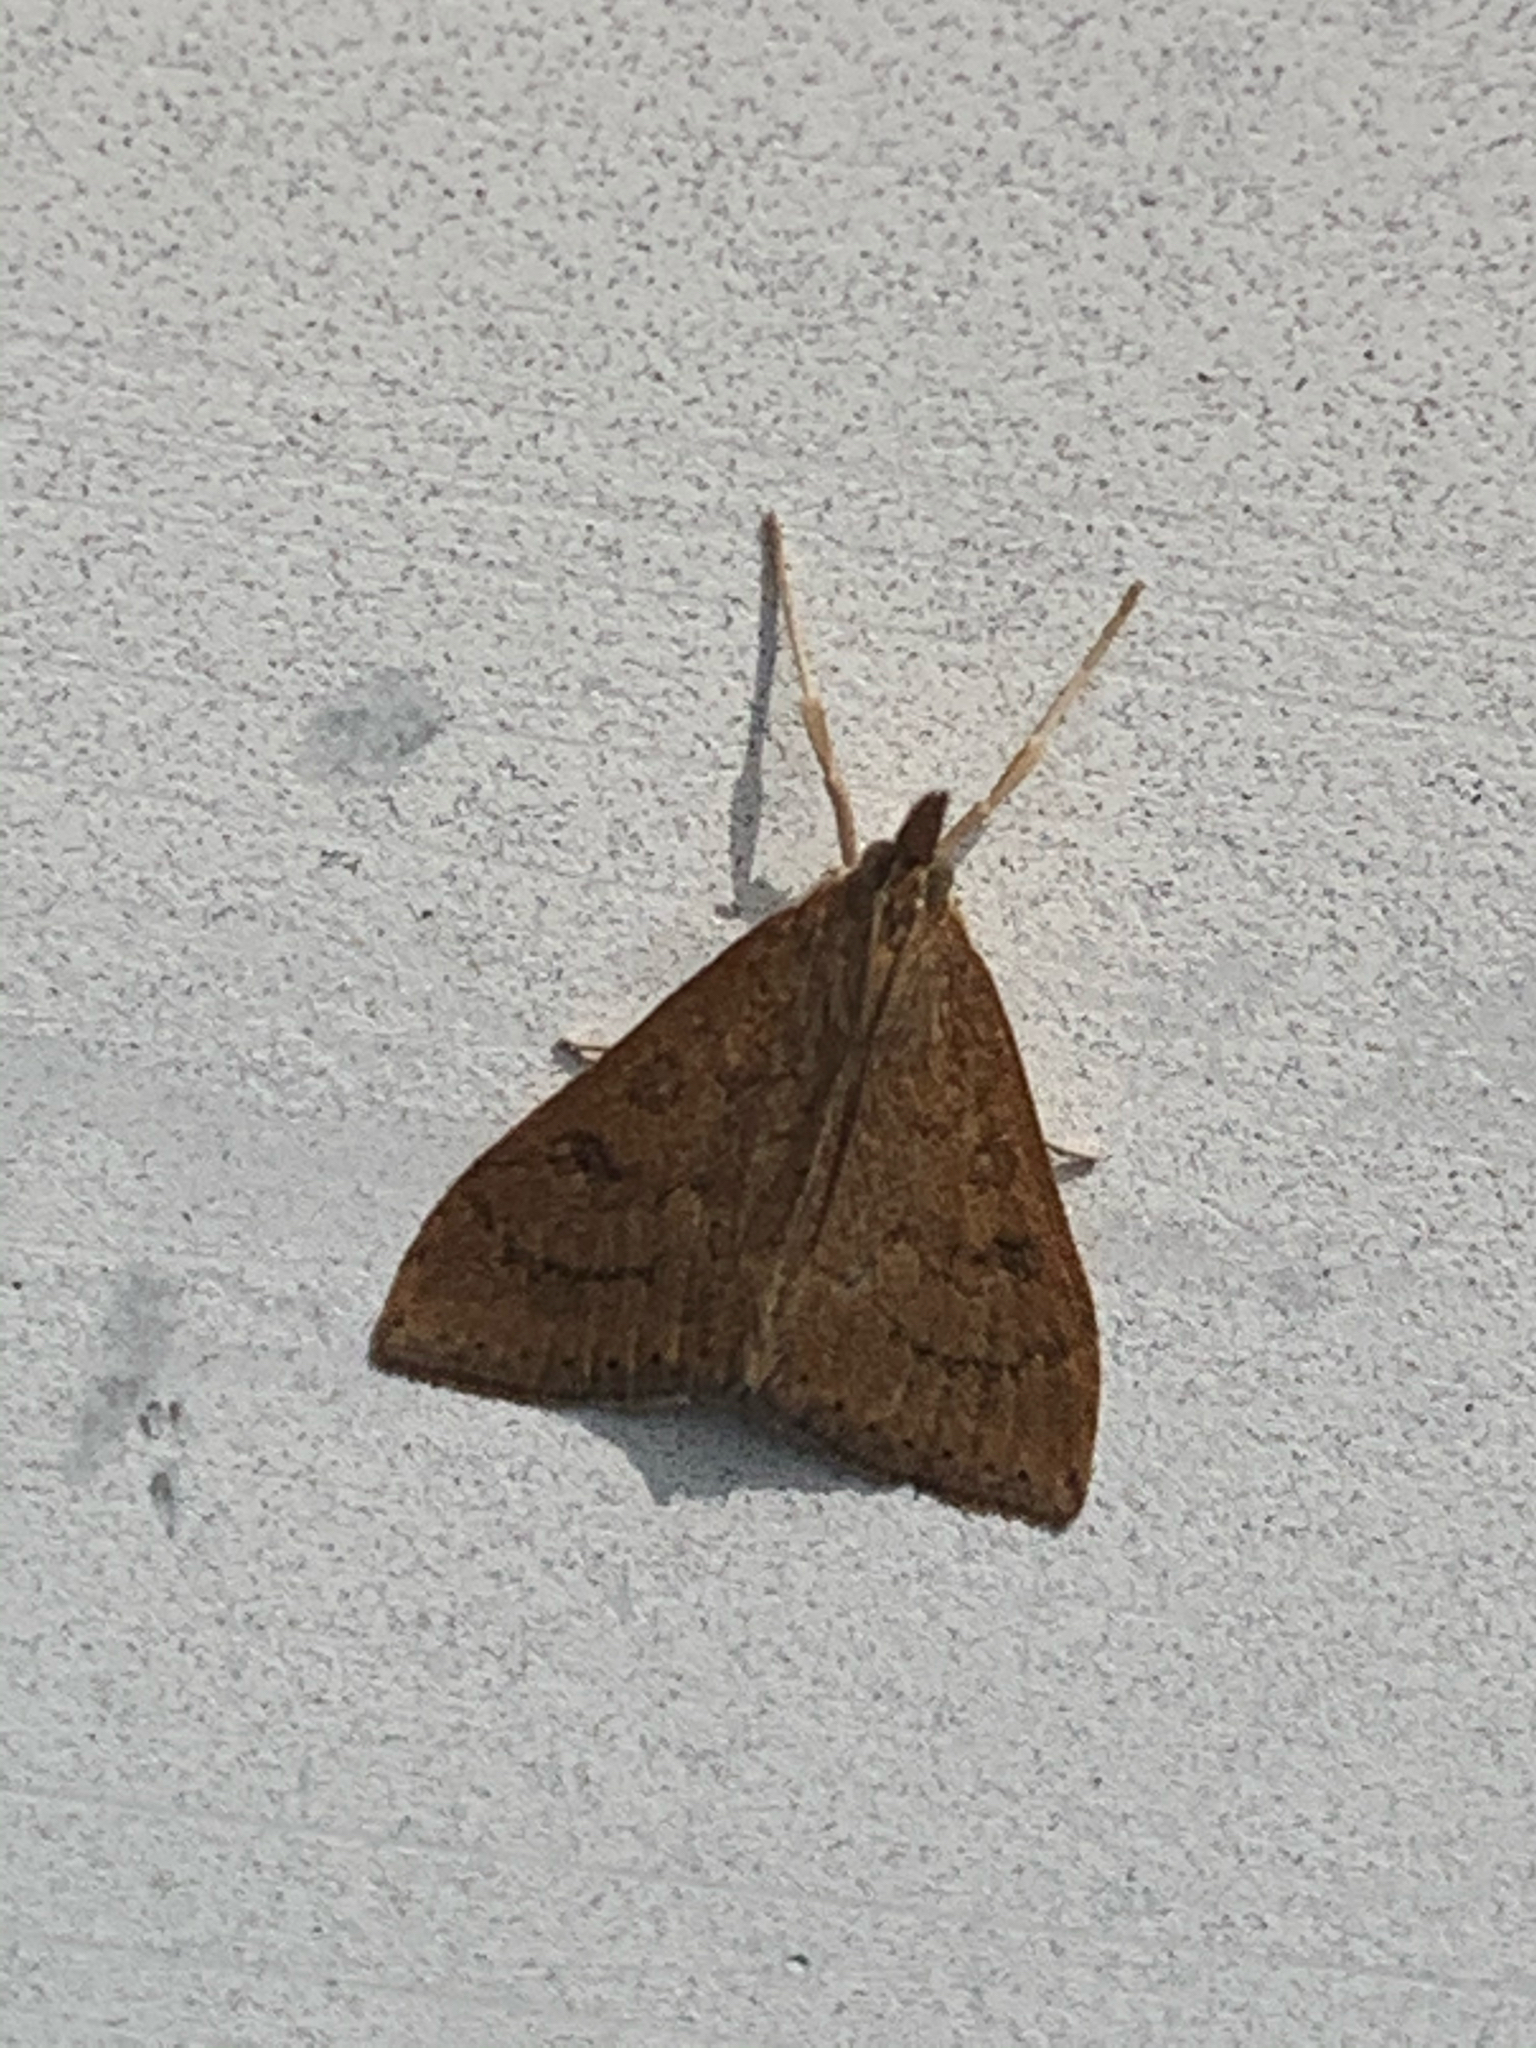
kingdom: Animalia
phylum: Arthropoda
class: Insecta
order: Lepidoptera
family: Crambidae
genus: Udea
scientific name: Udea rubigalis
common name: Celery leaftier moth
